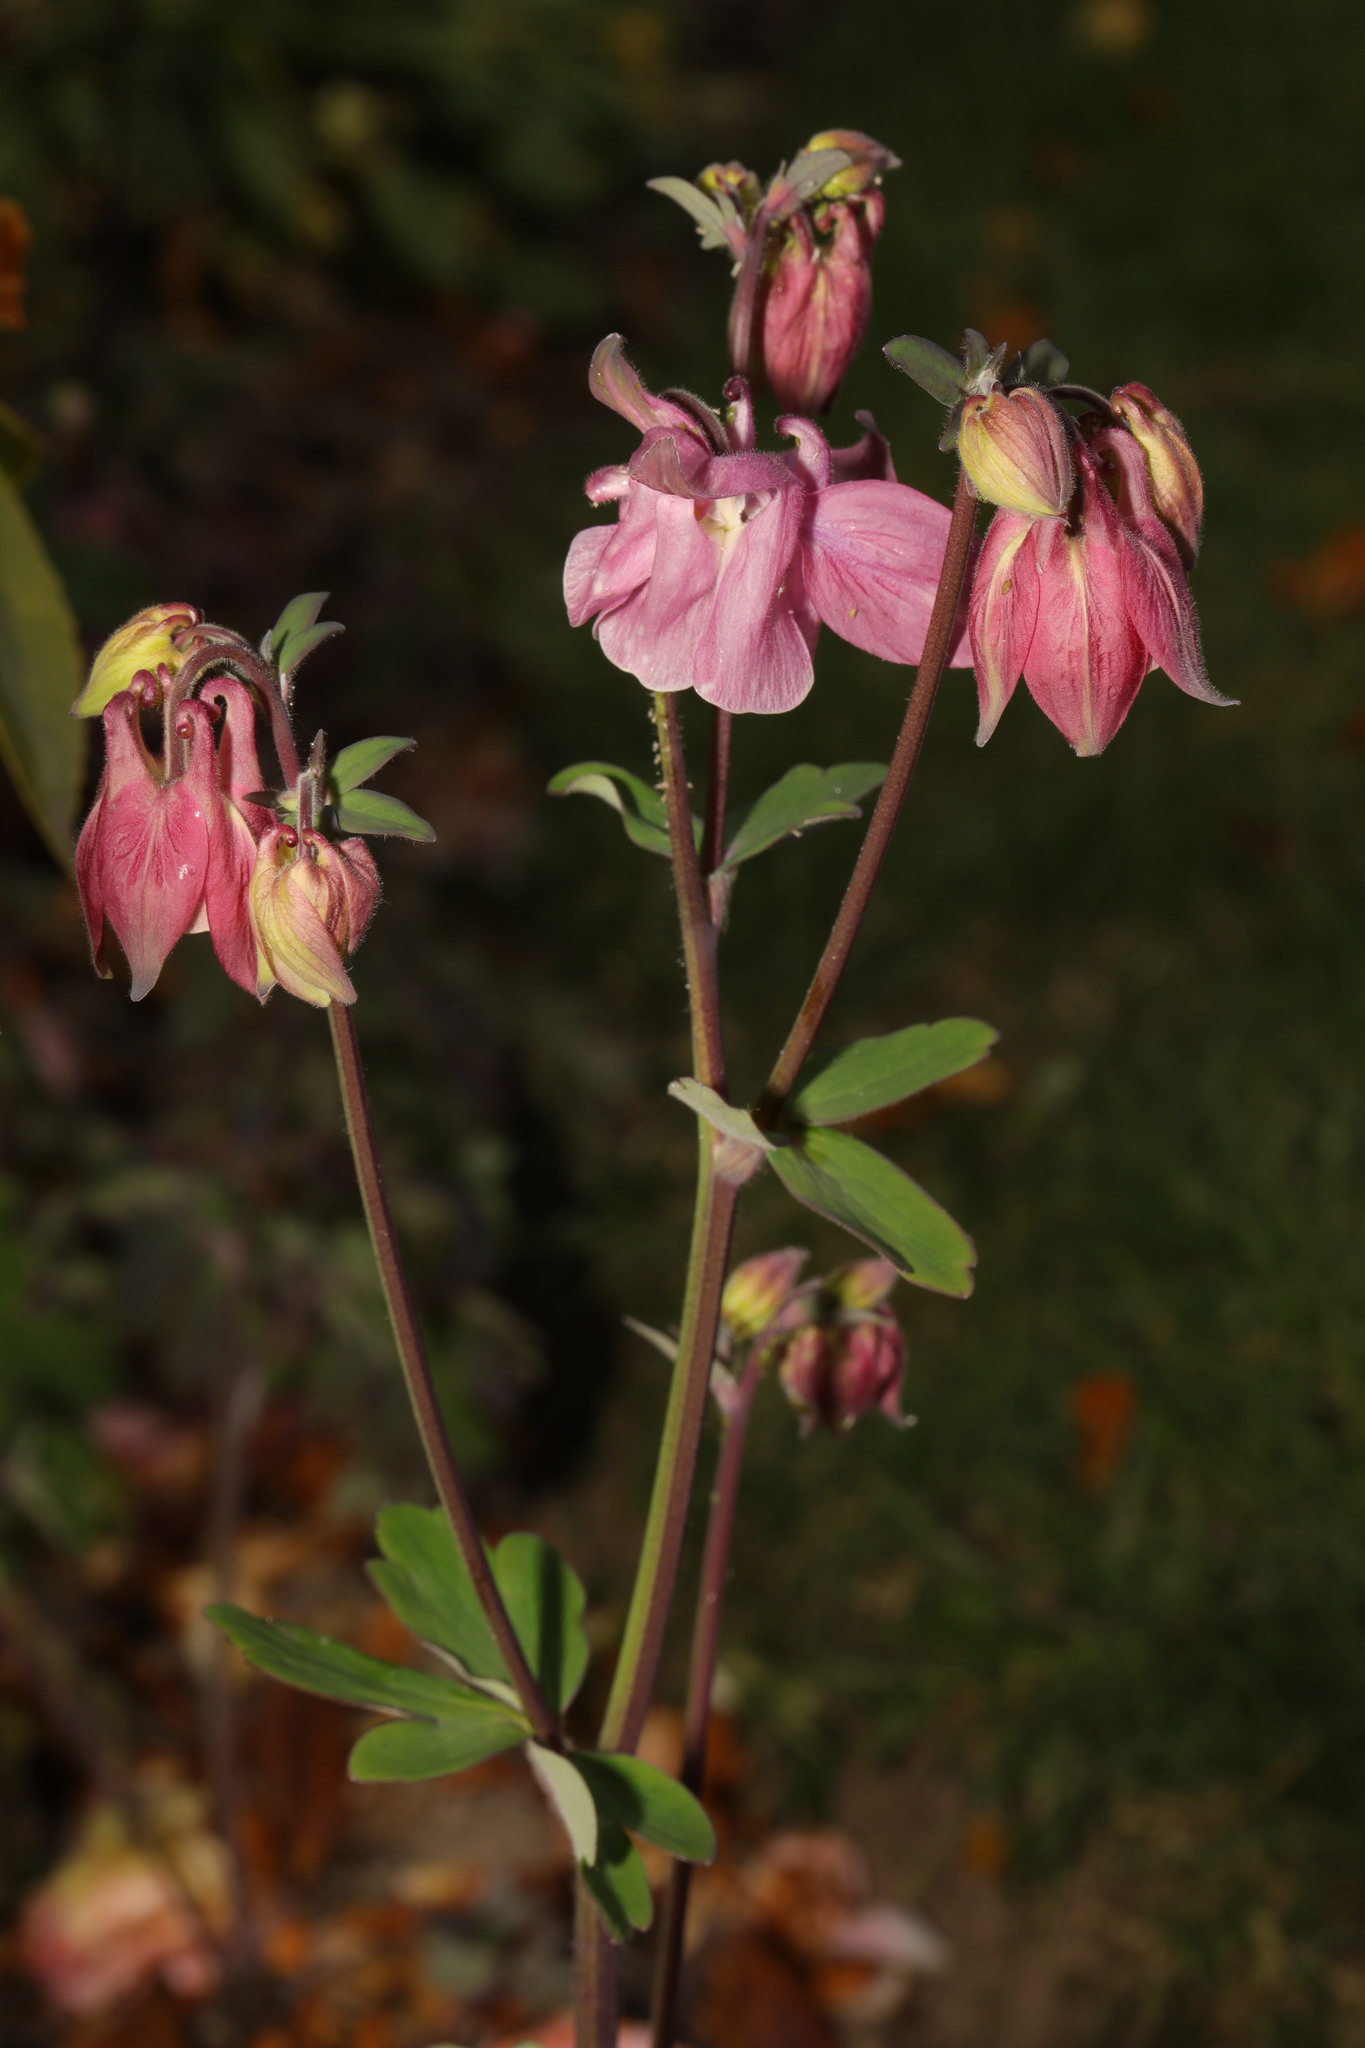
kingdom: Plantae
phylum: Tracheophyta
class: Magnoliopsida
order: Ranunculales
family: Ranunculaceae
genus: Aquilegia
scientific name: Aquilegia vulgaris
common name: Columbine
